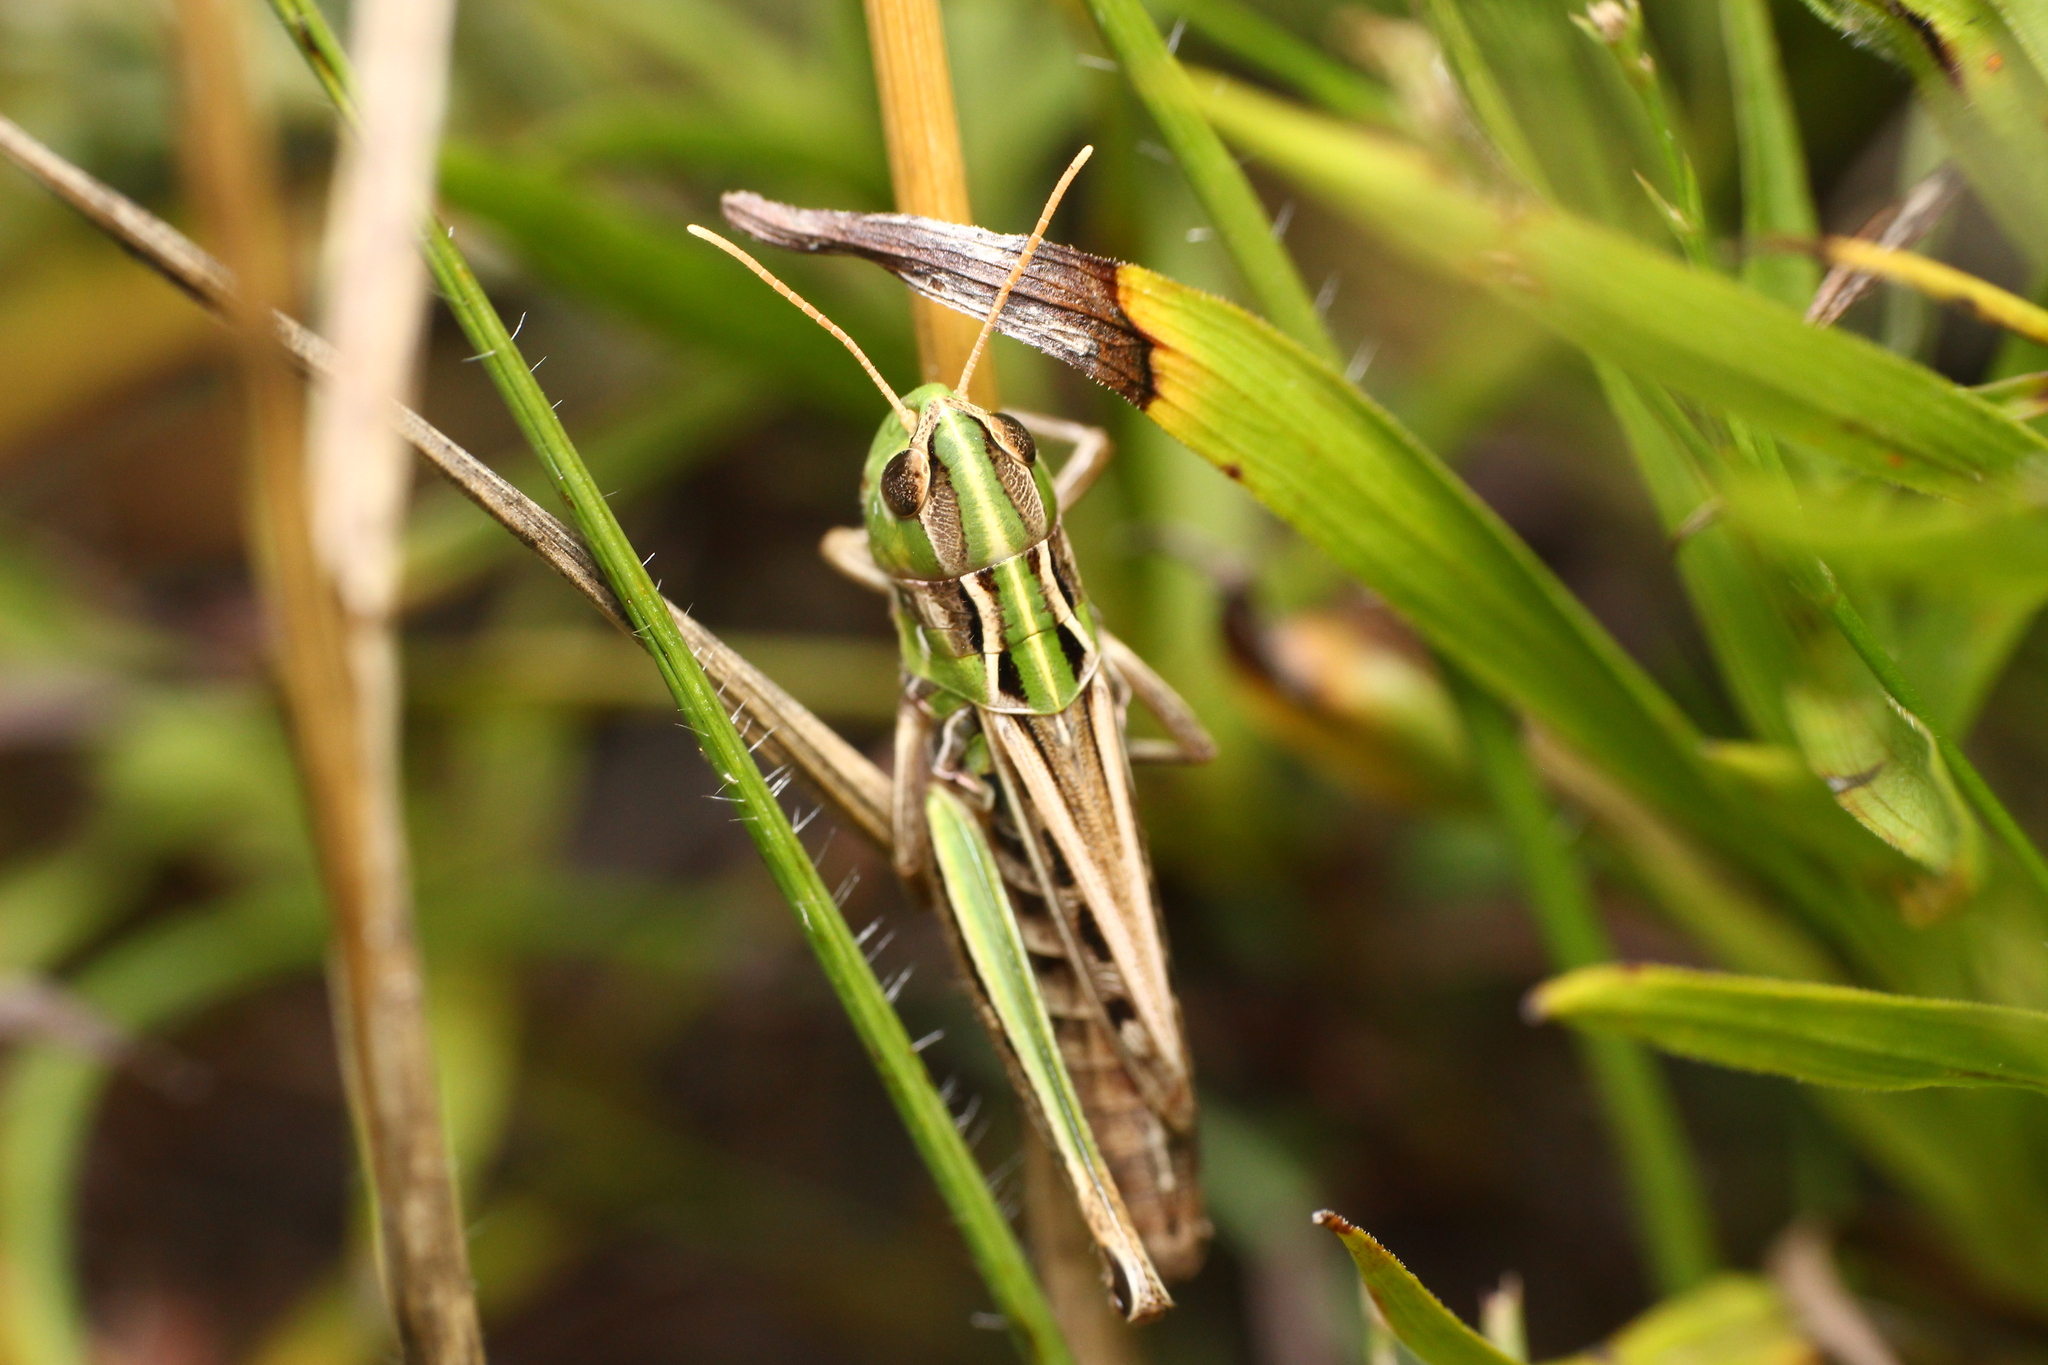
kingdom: Animalia
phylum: Arthropoda
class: Insecta
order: Orthoptera
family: Acrididae
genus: Stenobothrus
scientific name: Stenobothrus nigromaculatus
